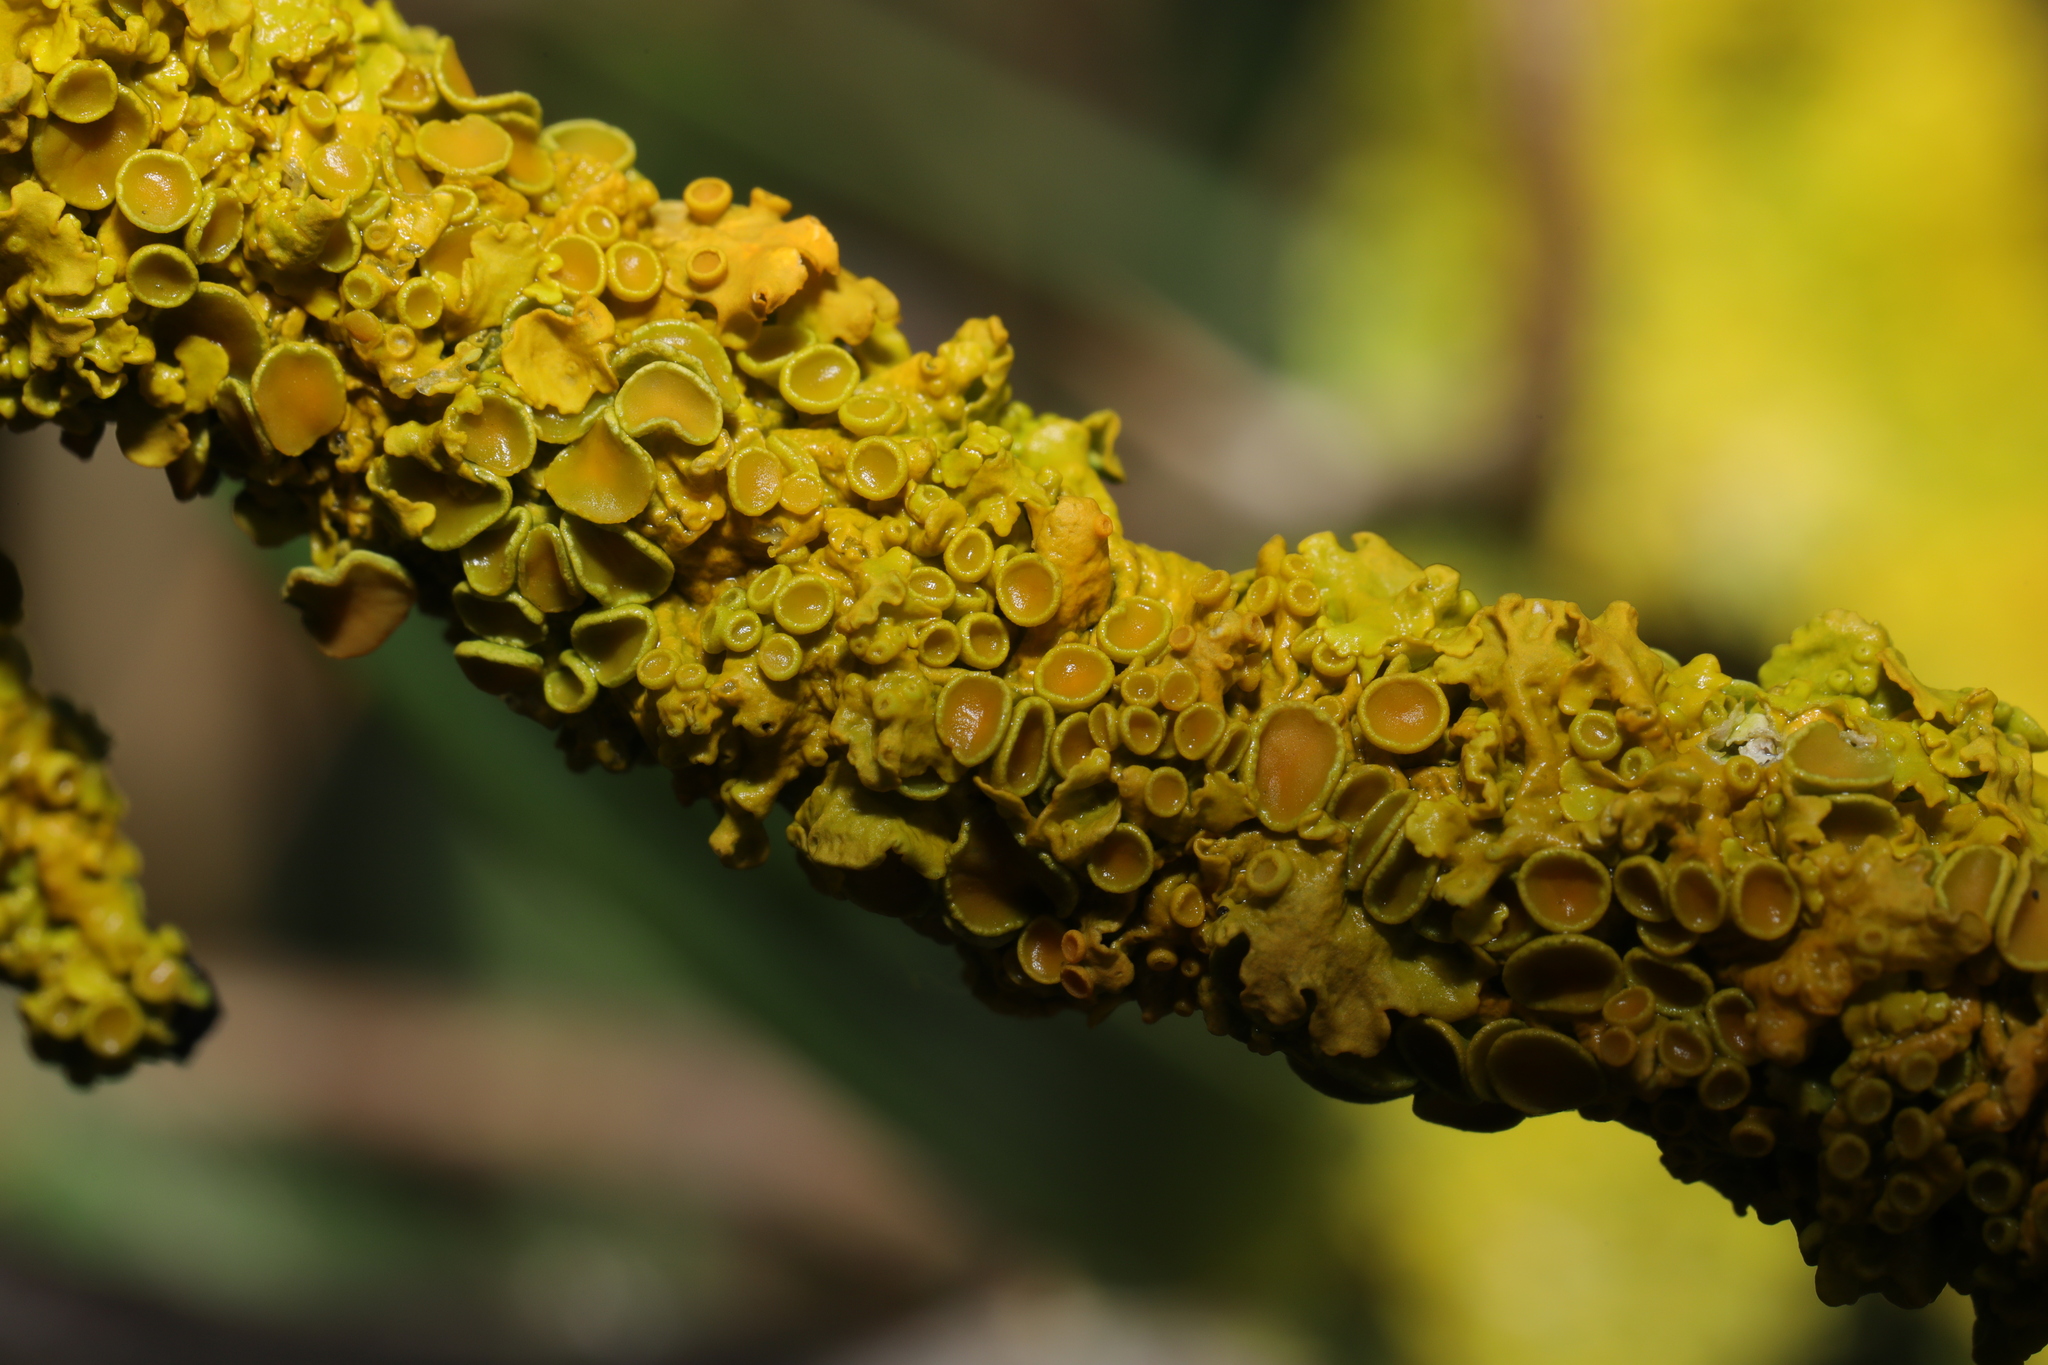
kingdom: Fungi
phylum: Ascomycota
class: Lecanoromycetes
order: Teloschistales
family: Teloschistaceae
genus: Xanthoria
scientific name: Xanthoria parietina
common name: Common orange lichen
